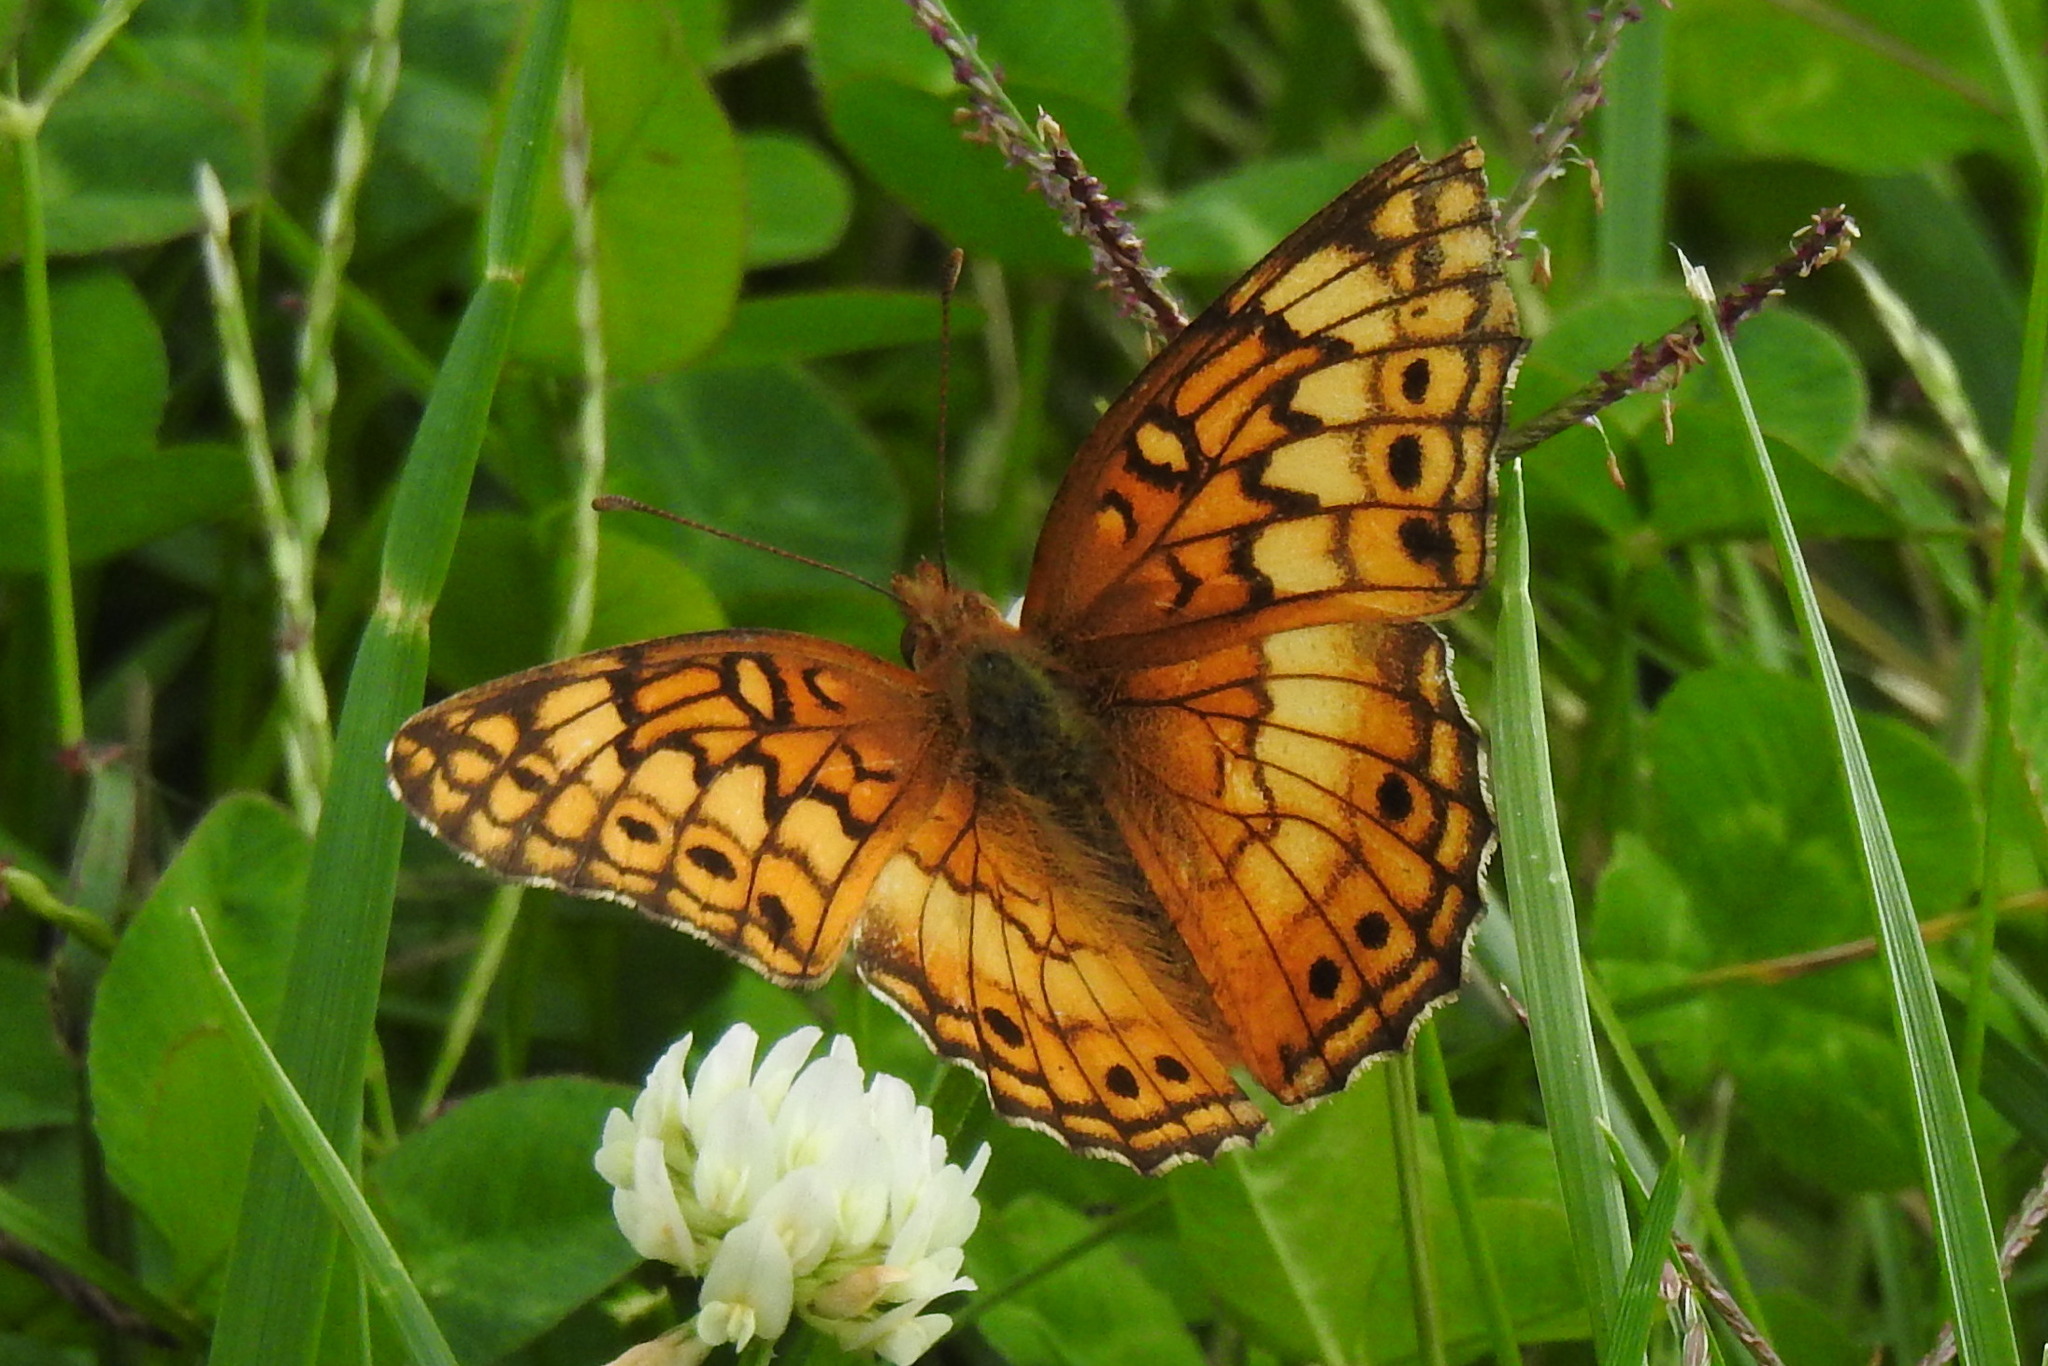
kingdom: Animalia
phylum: Arthropoda
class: Insecta
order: Lepidoptera
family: Nymphalidae
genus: Euptoieta
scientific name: Euptoieta claudia
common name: Variegated fritillary
